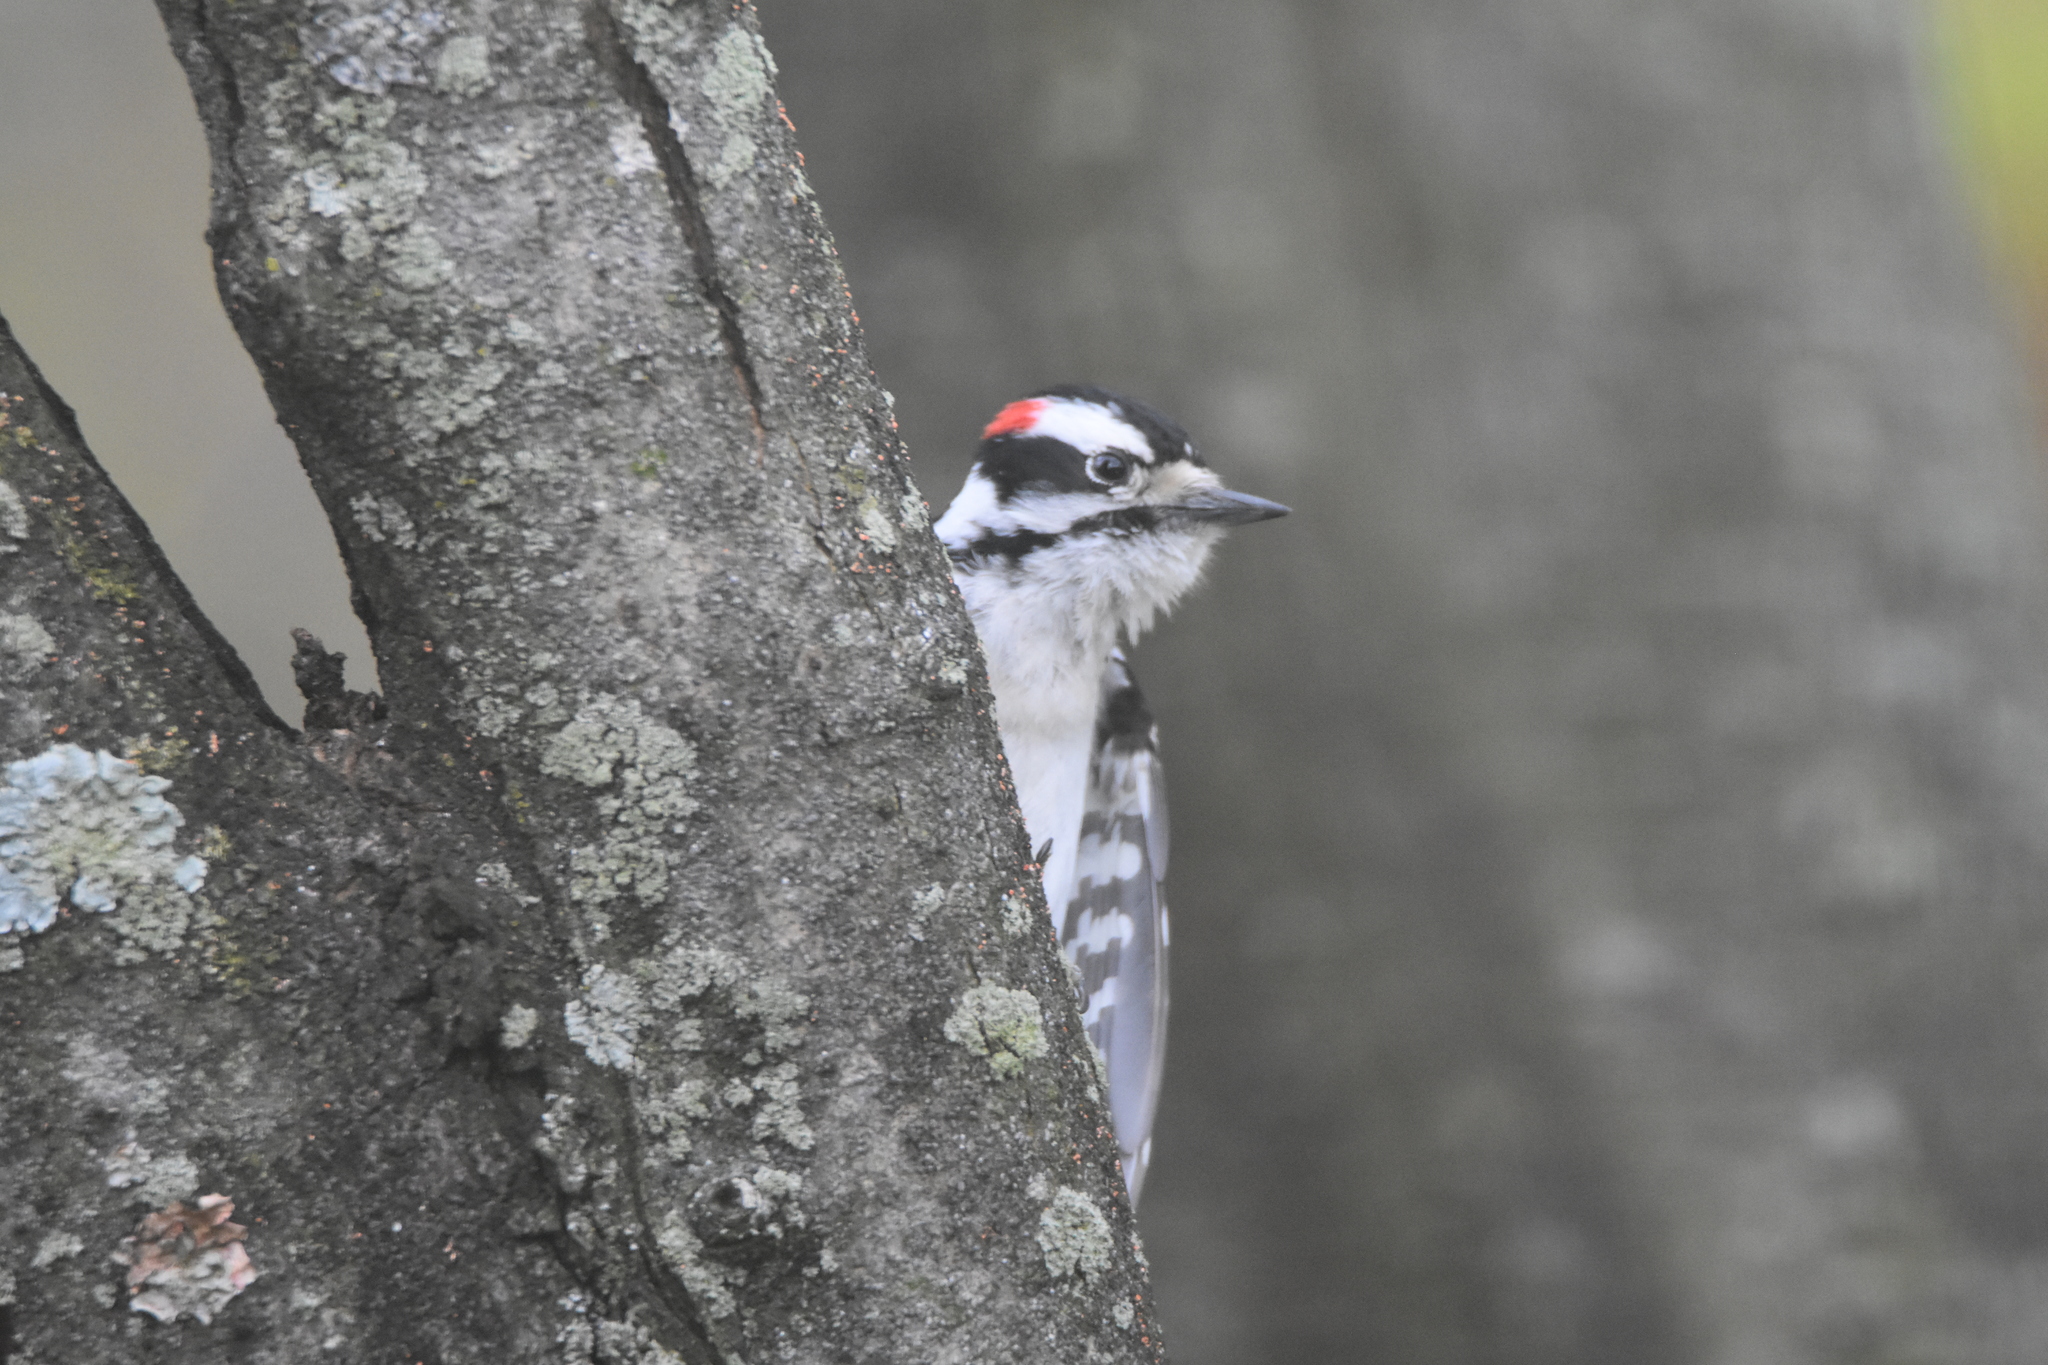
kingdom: Animalia
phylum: Chordata
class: Aves
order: Piciformes
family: Picidae
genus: Dryobates
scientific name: Dryobates pubescens
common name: Downy woodpecker
